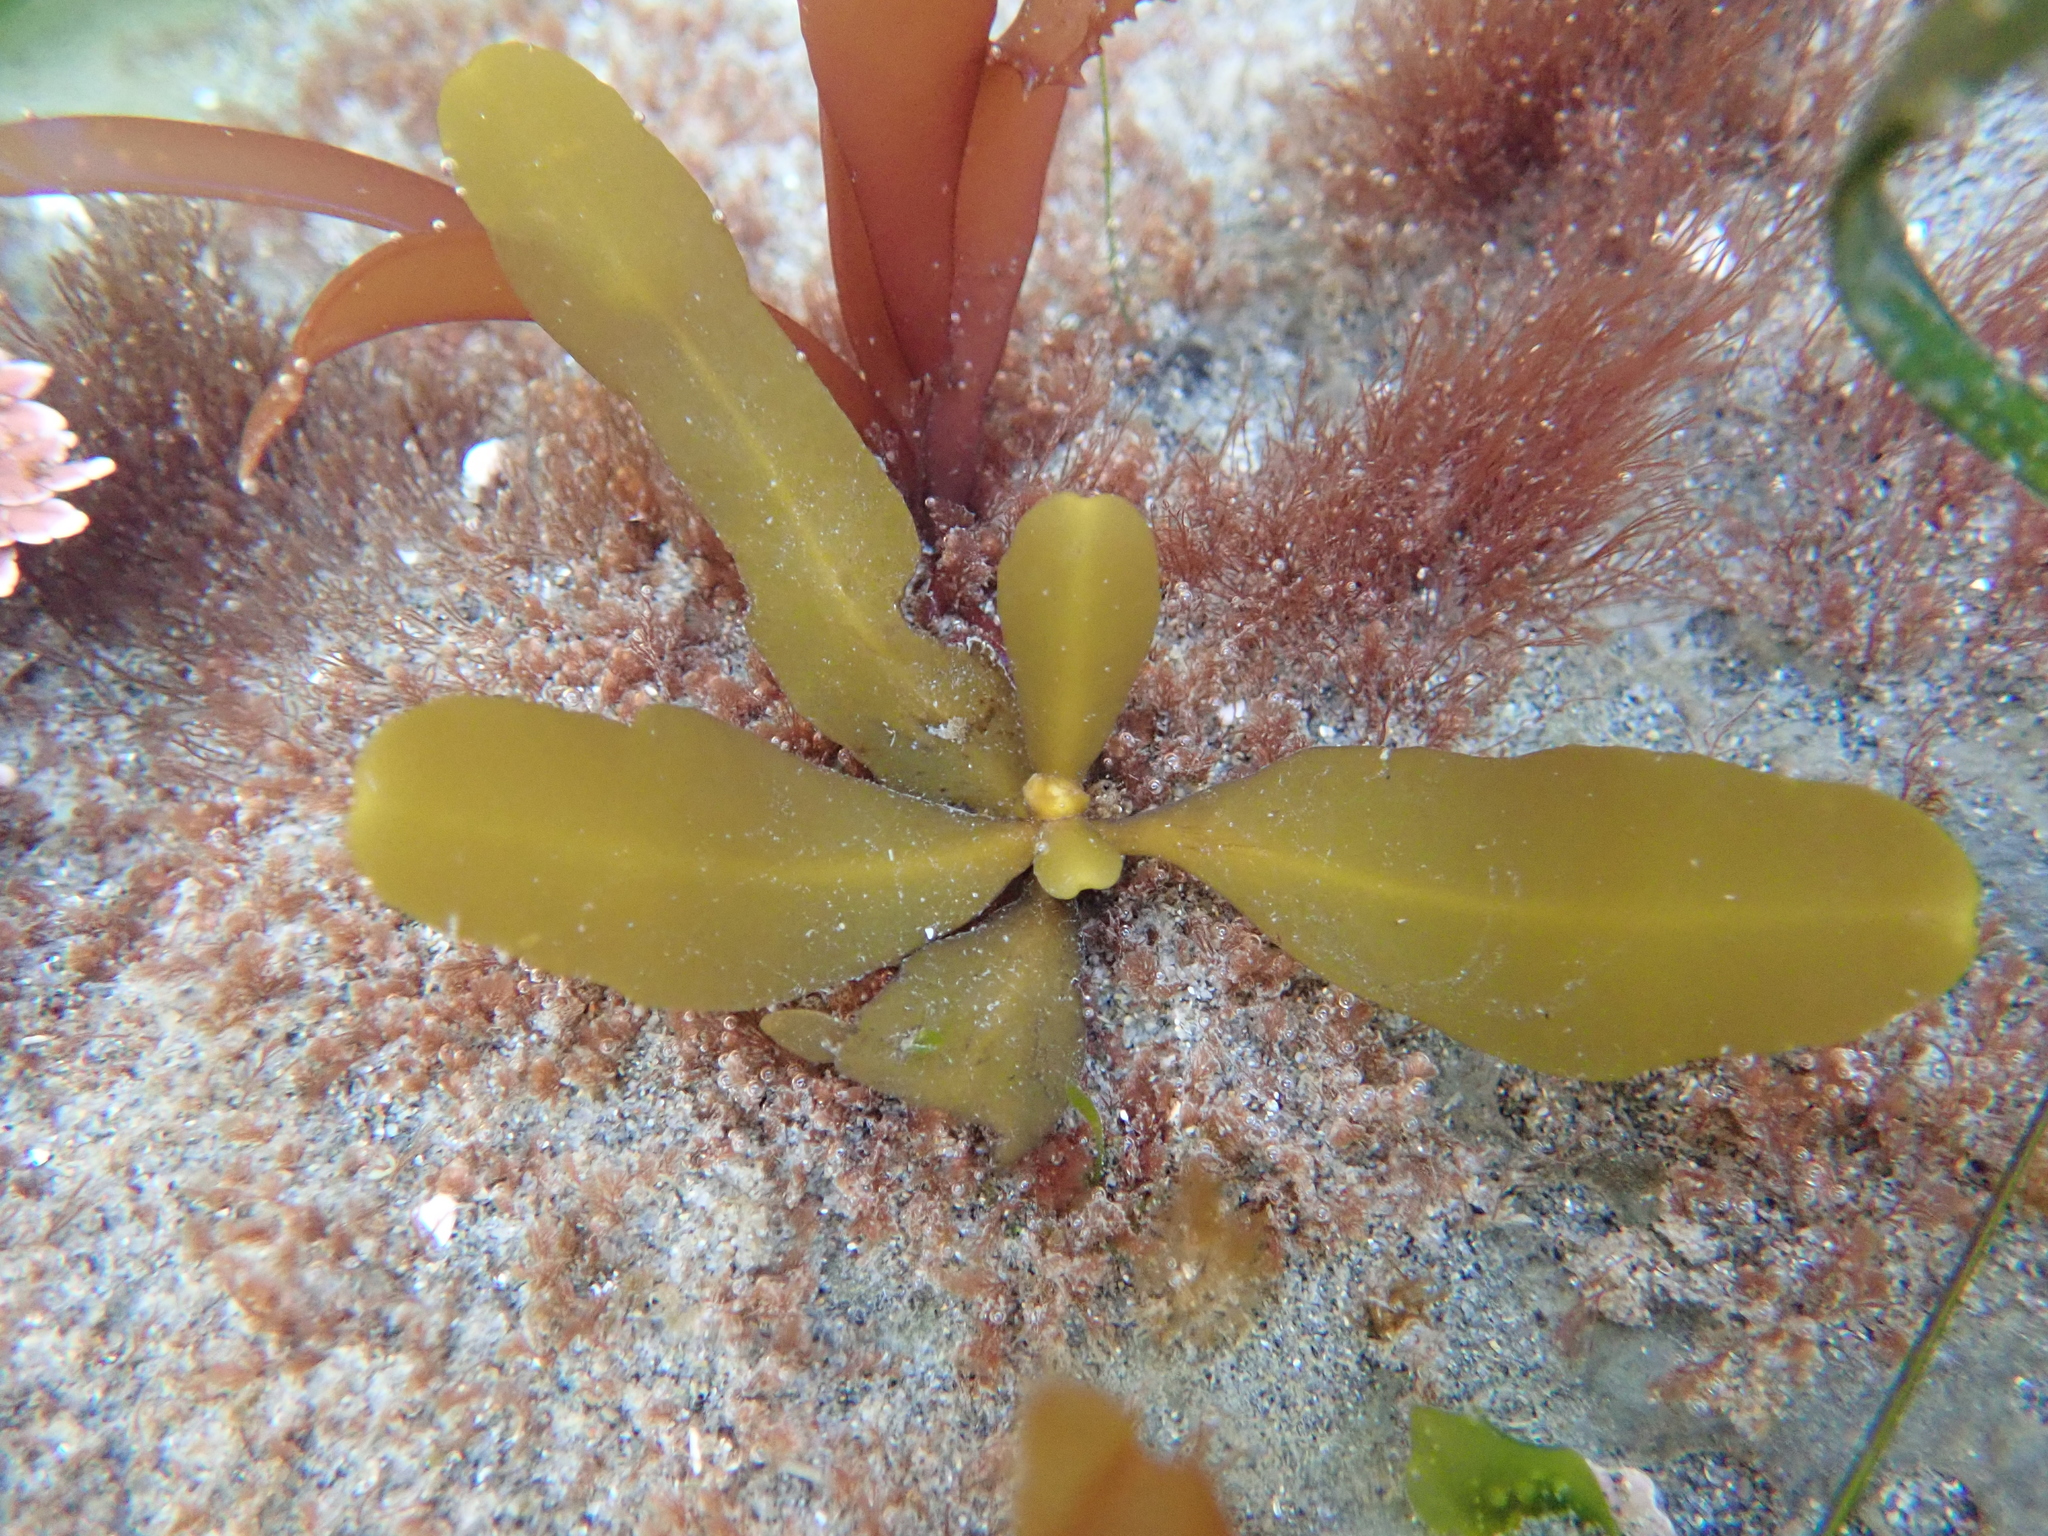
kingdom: Chromista
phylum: Ochrophyta
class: Phaeophyceae
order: Fucales
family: Sargassaceae
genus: Stephanocystis
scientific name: Stephanocystis
